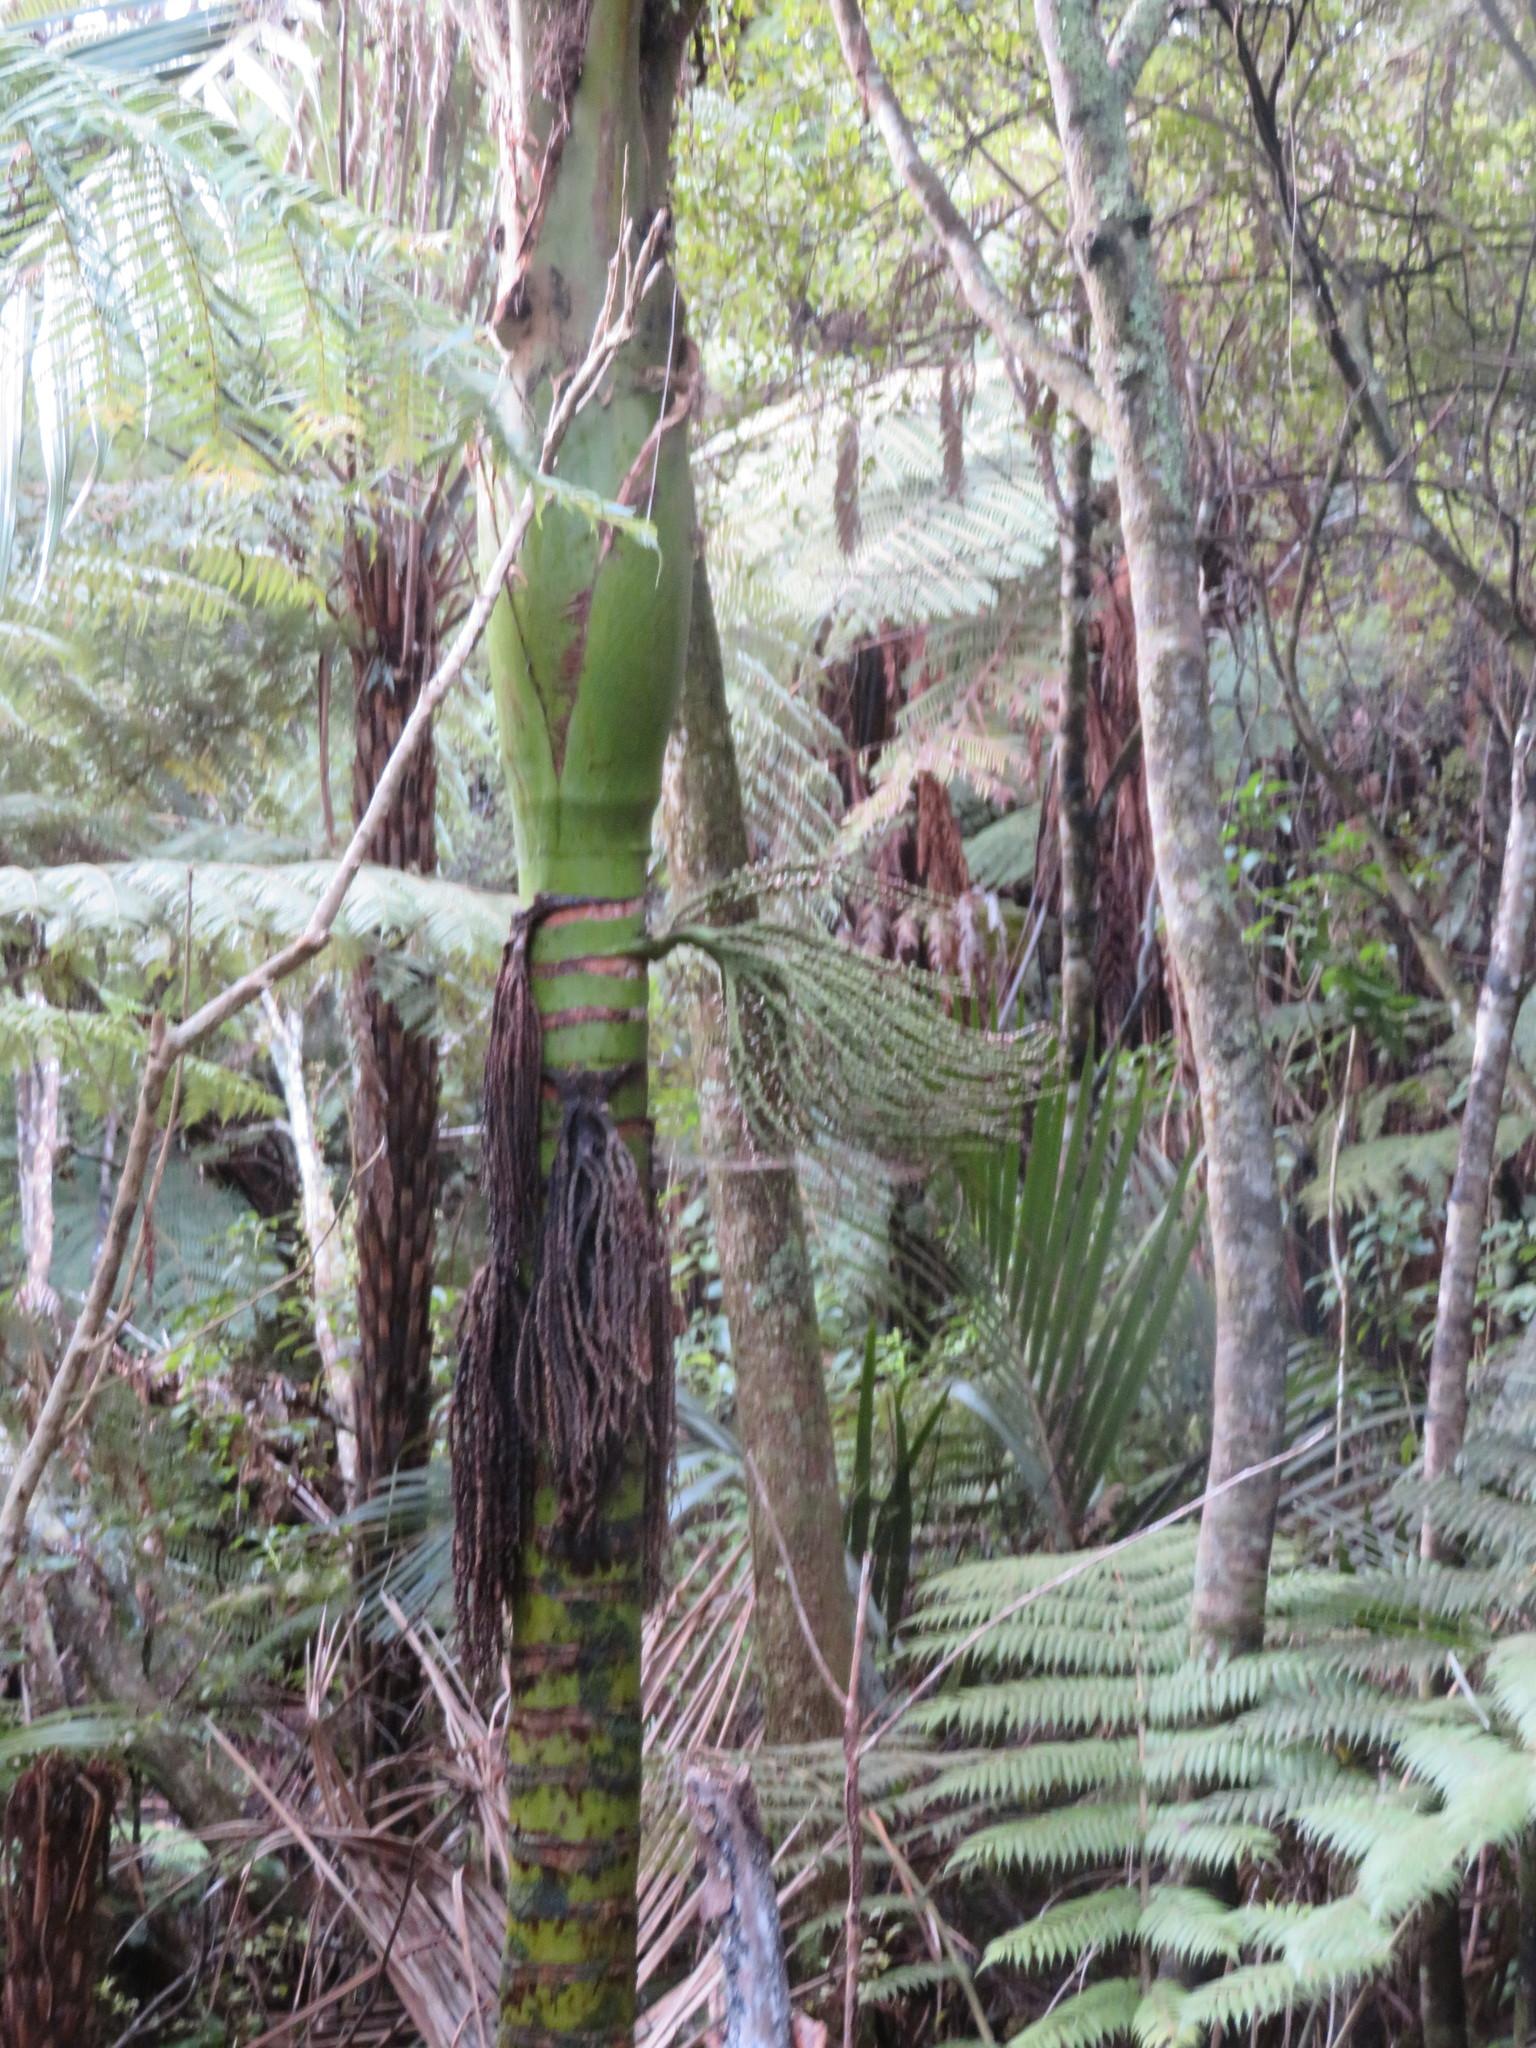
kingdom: Plantae
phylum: Tracheophyta
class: Liliopsida
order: Arecales
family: Arecaceae
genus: Rhopalostylis
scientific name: Rhopalostylis sapida
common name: Feather-duster palm
